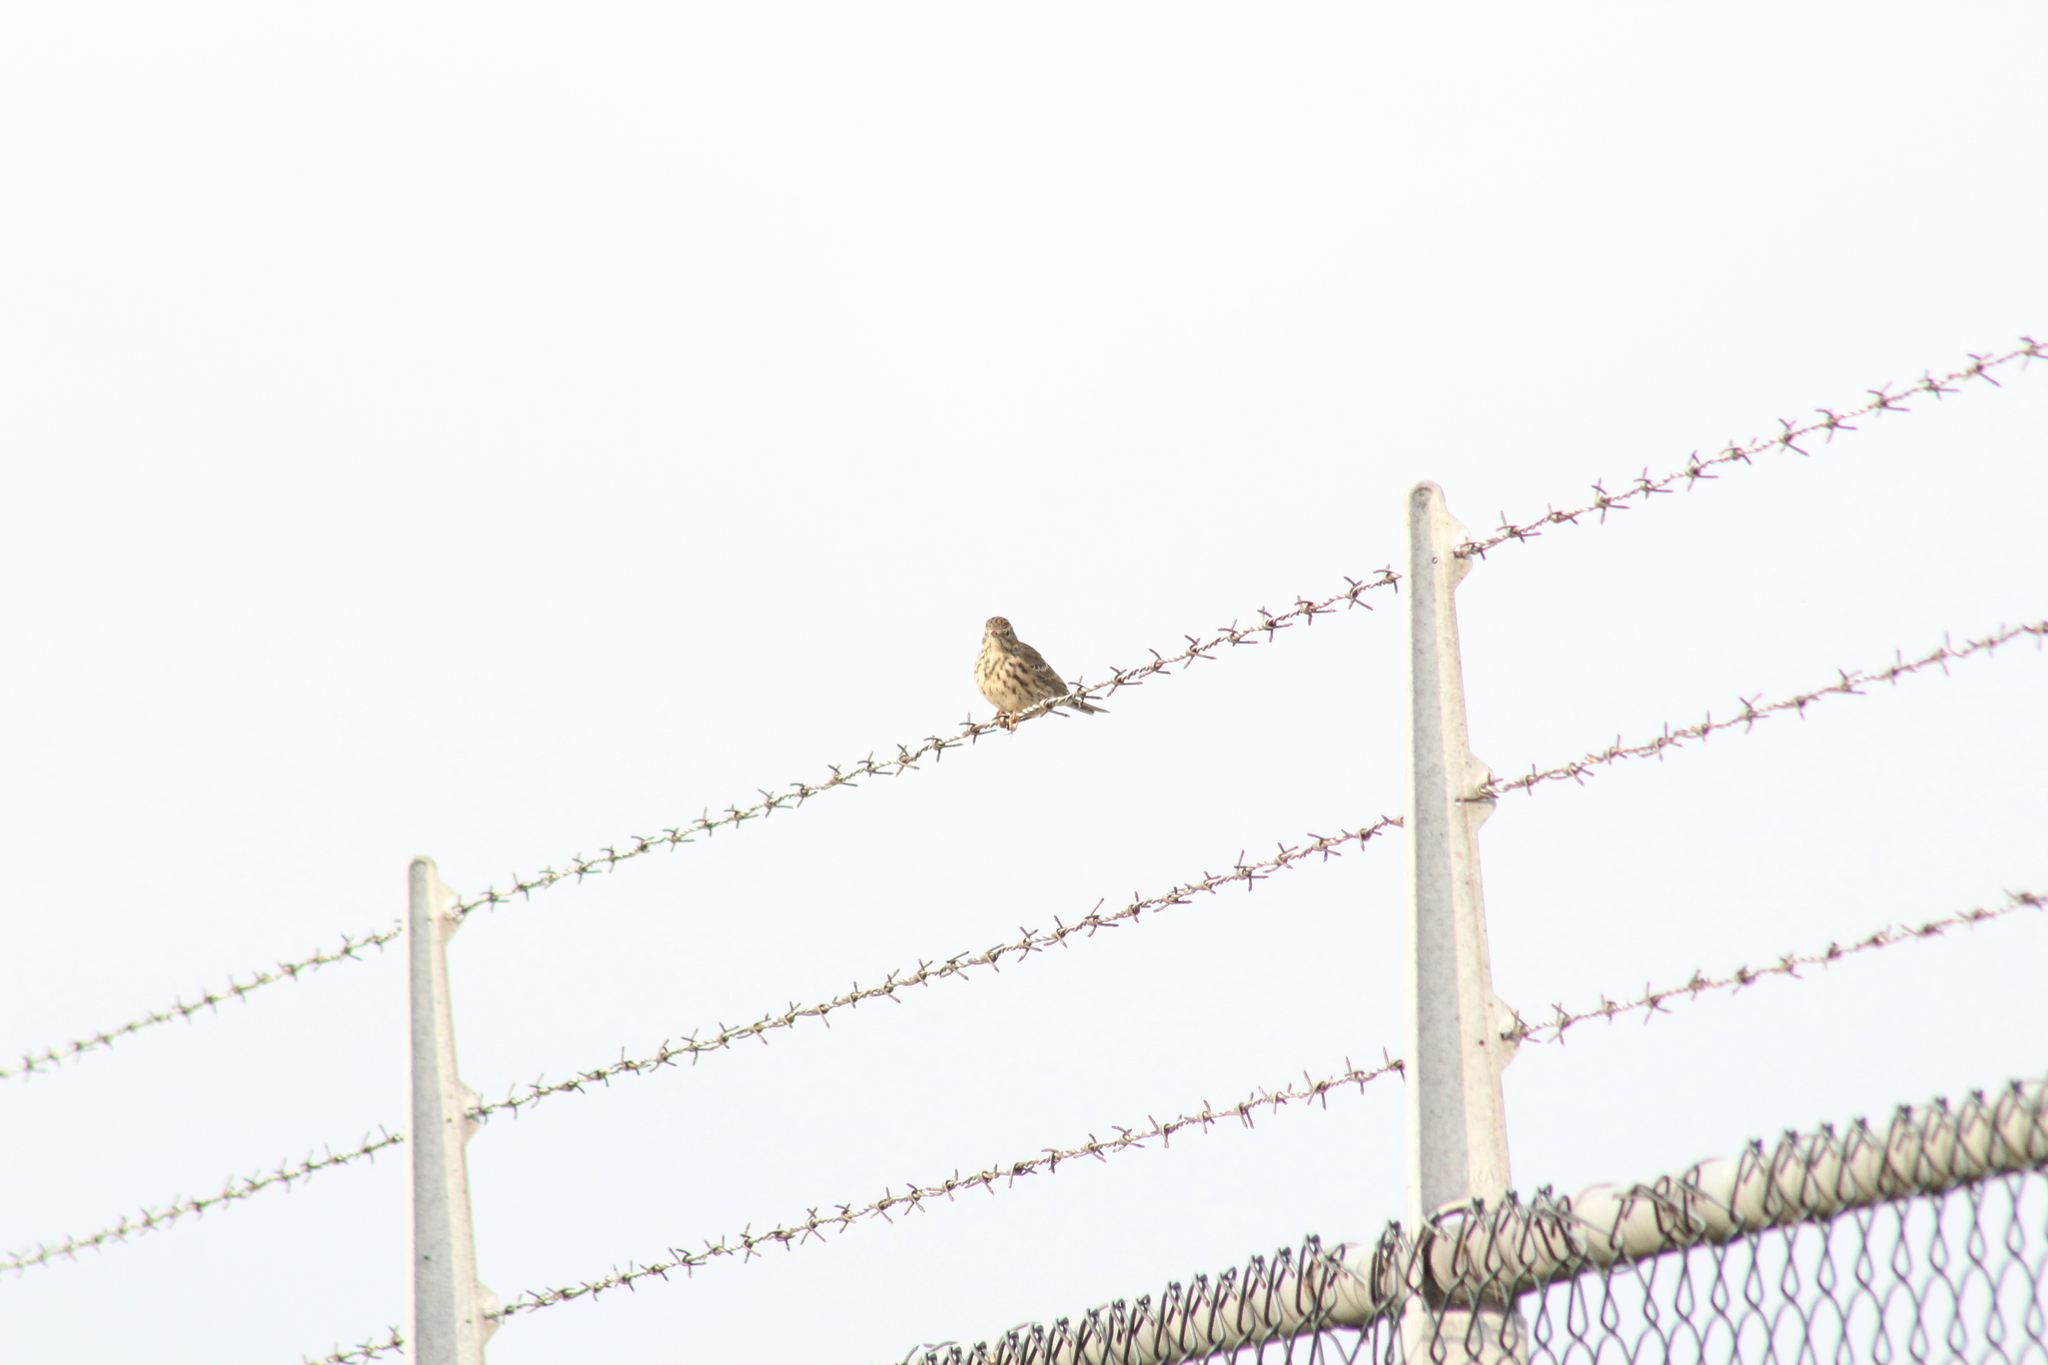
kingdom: Animalia
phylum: Chordata
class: Aves
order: Passeriformes
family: Motacillidae
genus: Anthus
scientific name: Anthus pratensis
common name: Meadow pipit
